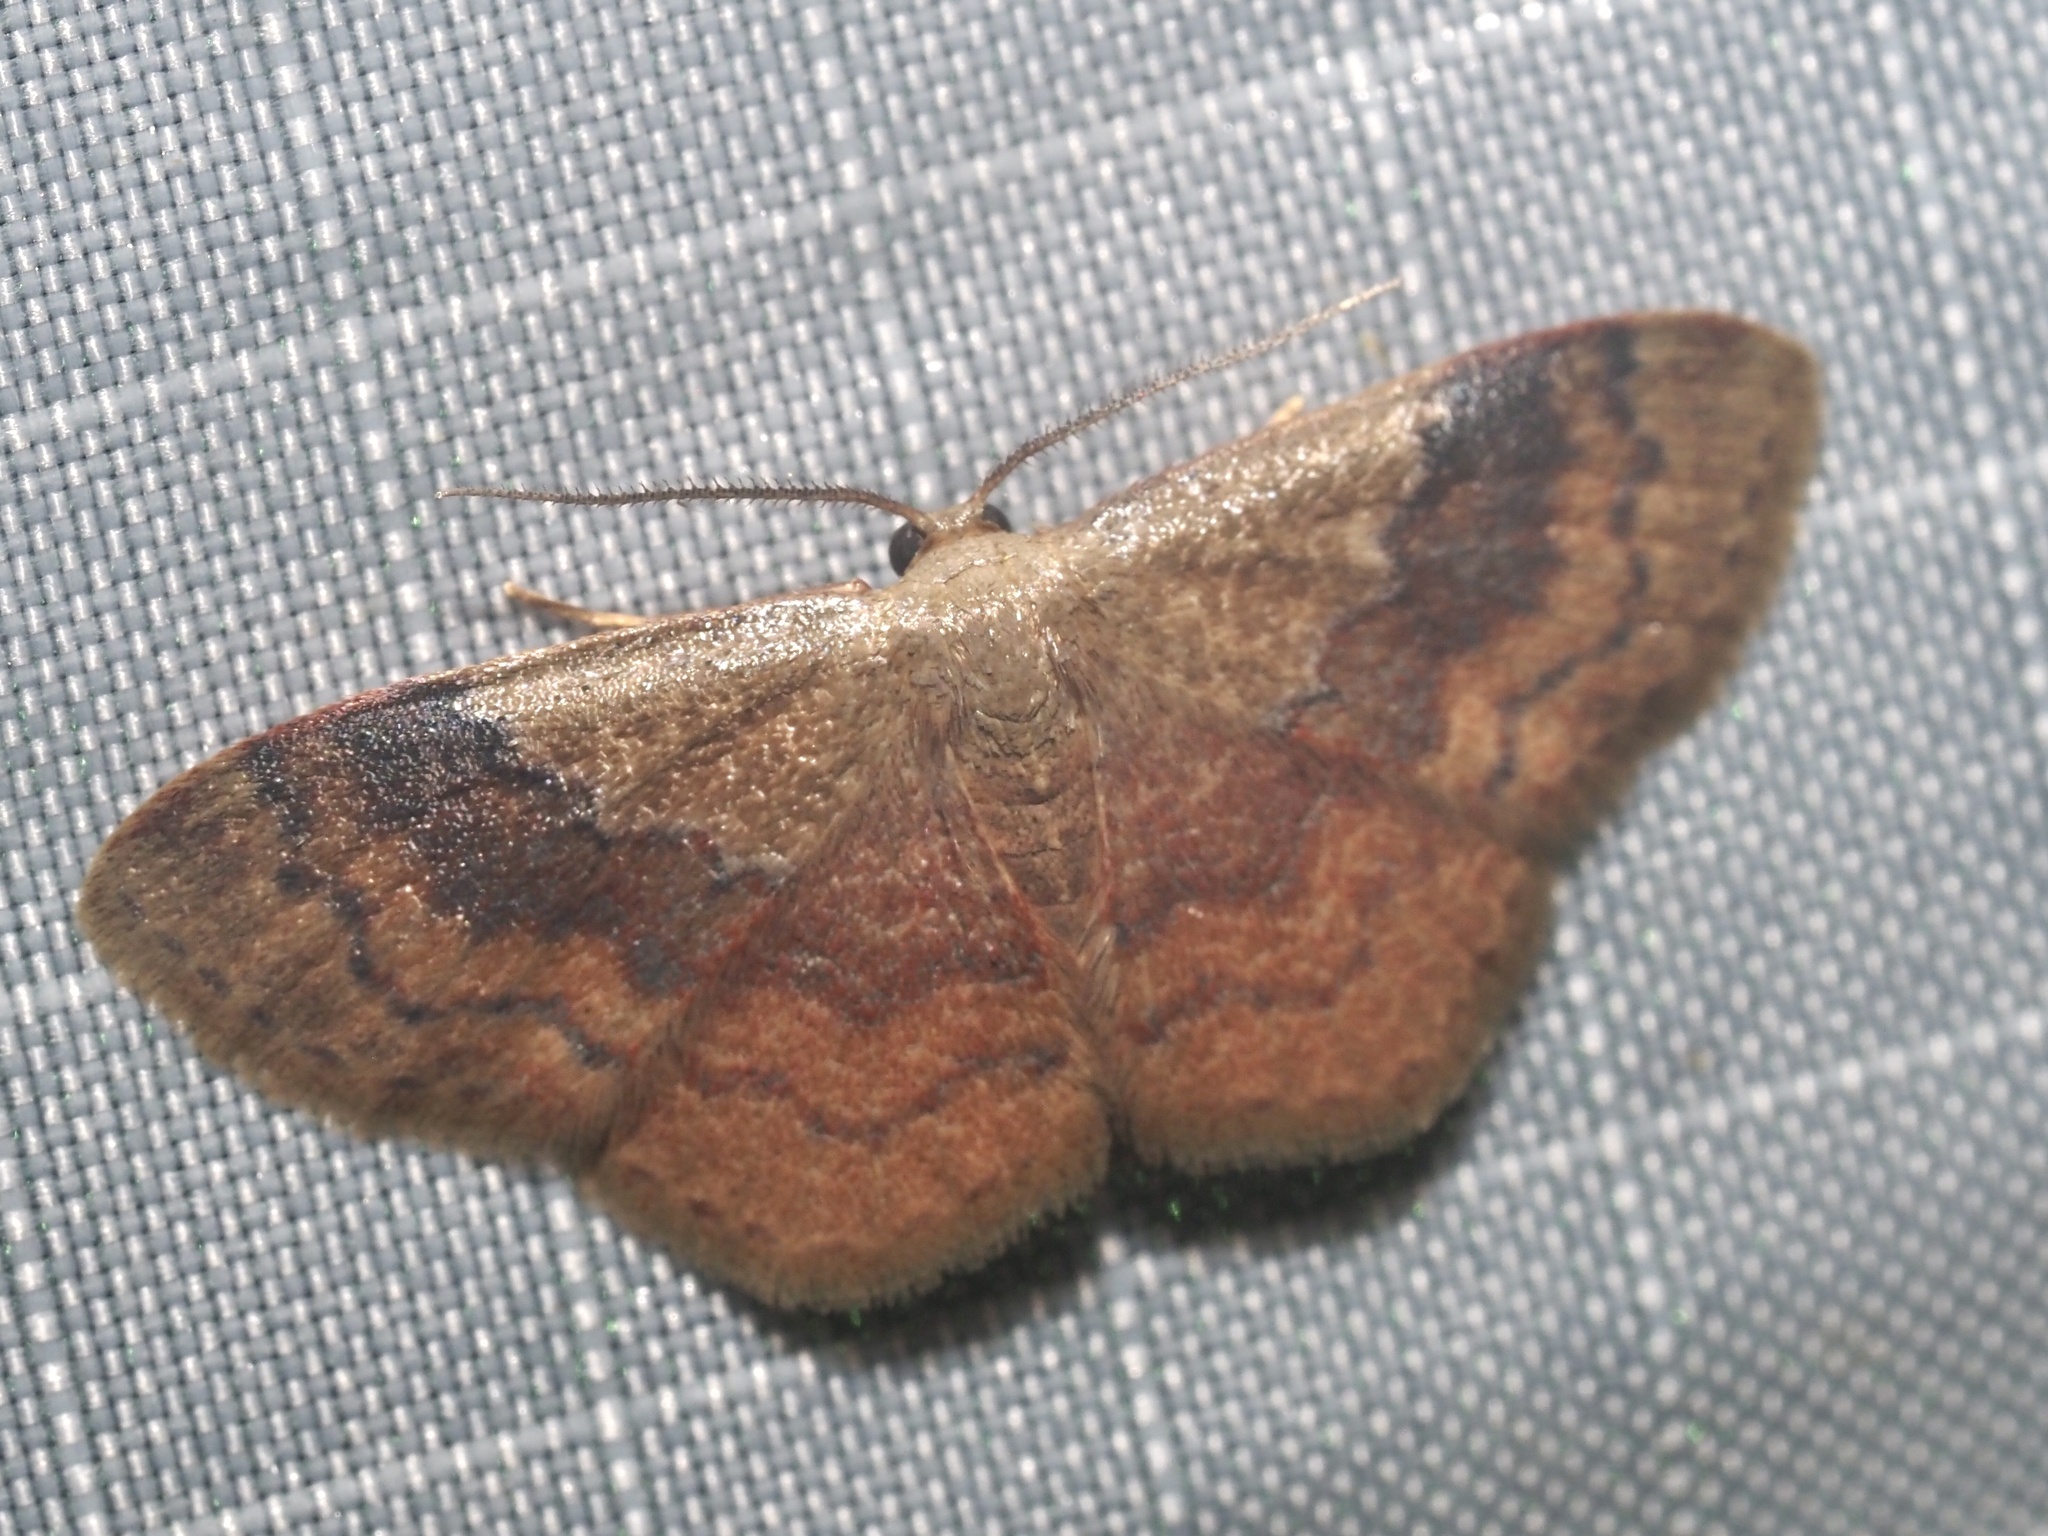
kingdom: Animalia
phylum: Arthropoda
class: Insecta
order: Lepidoptera
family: Geometridae
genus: Leptostales
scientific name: Leptostales ferruminaria
